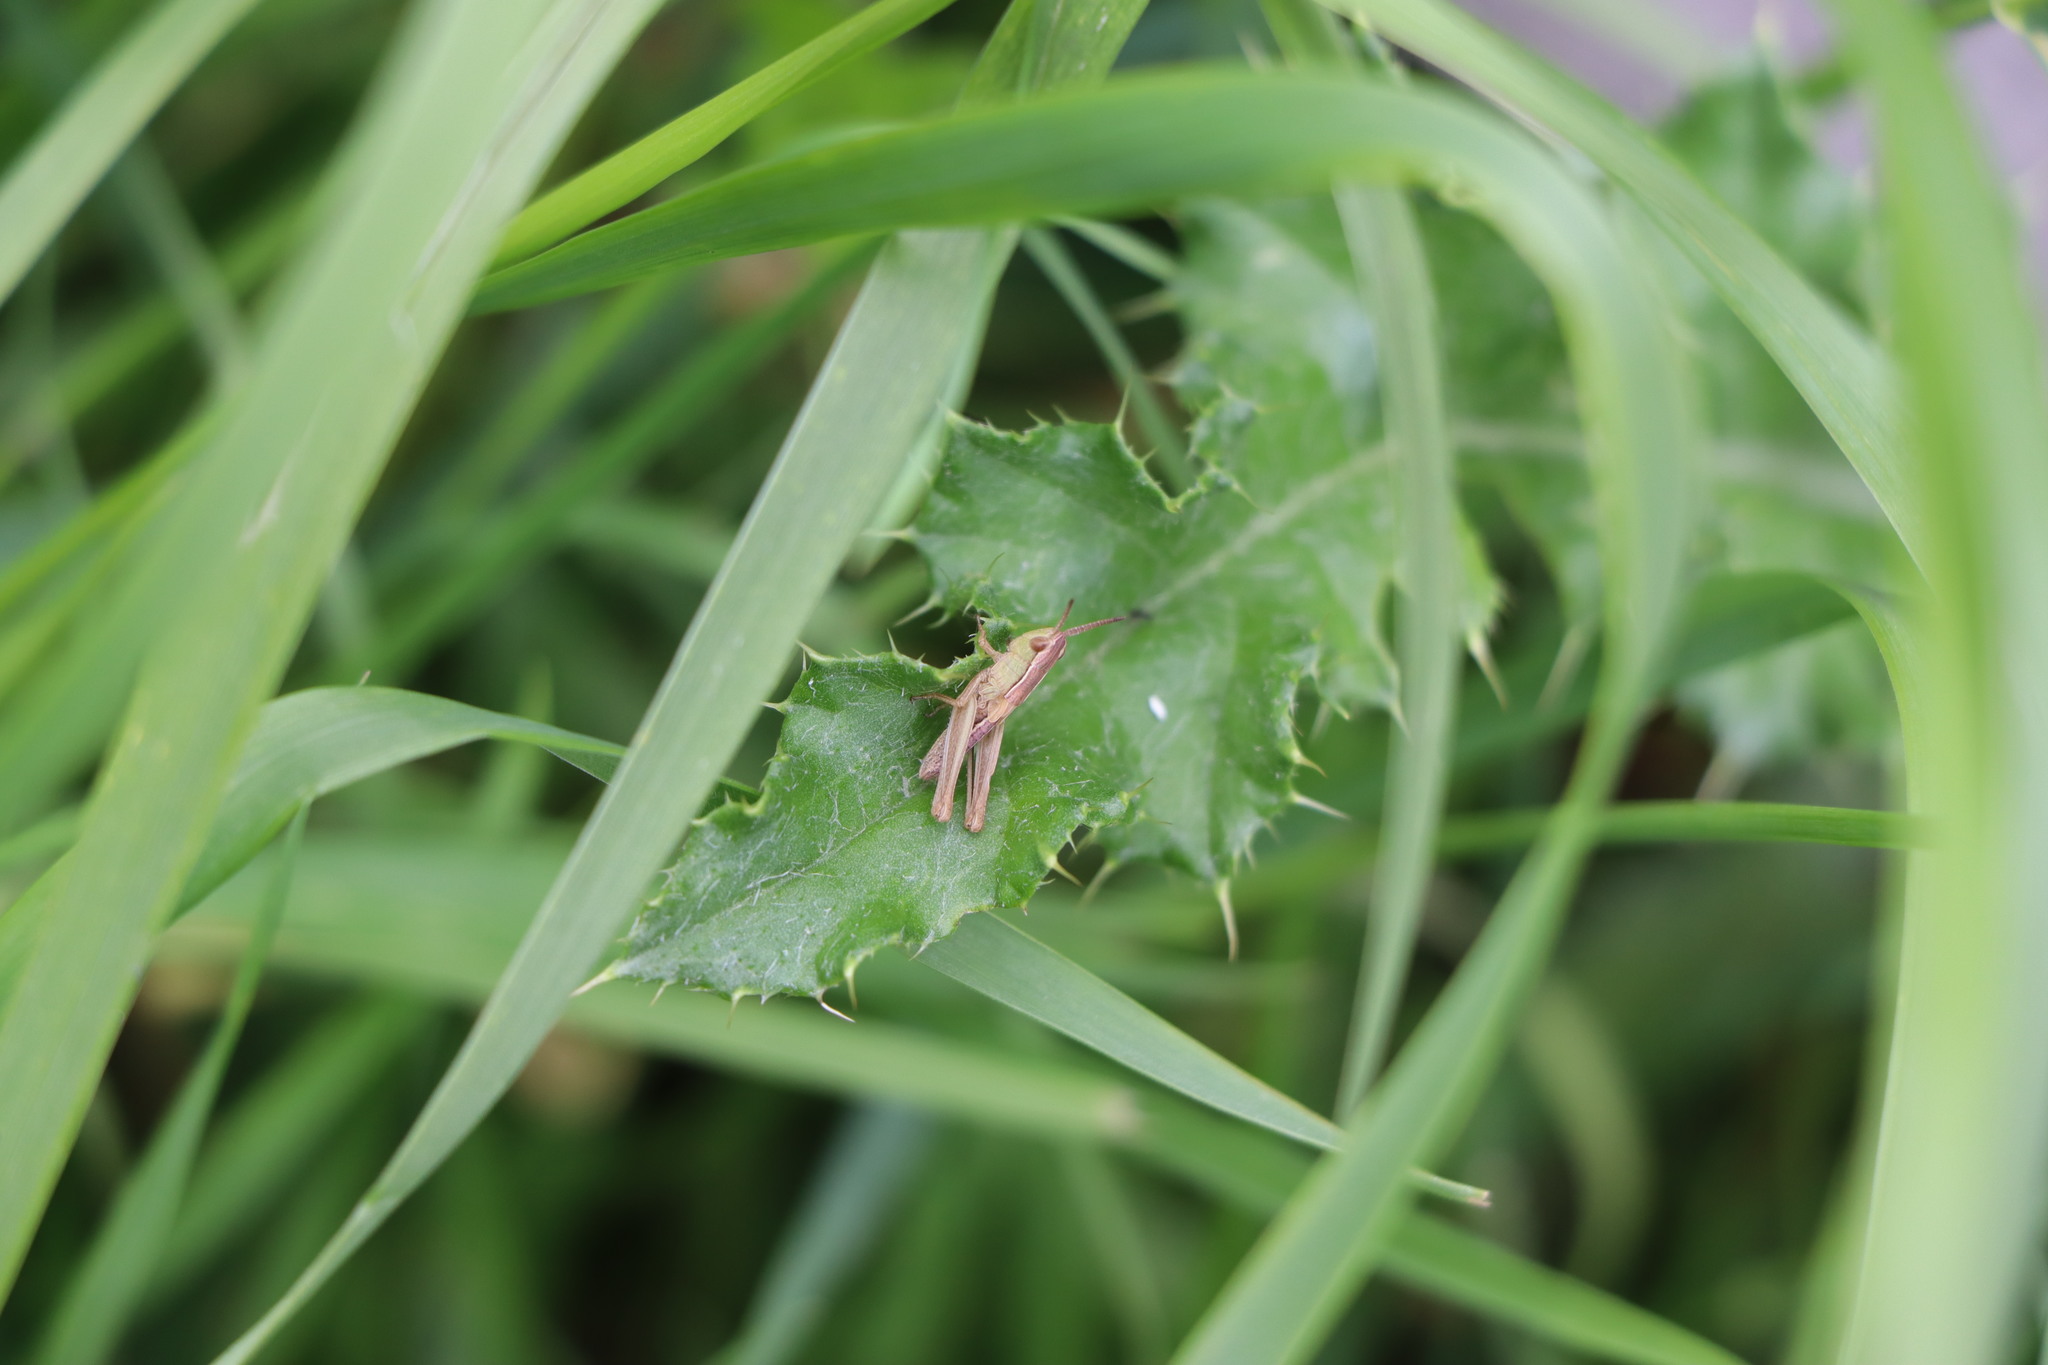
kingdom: Animalia
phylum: Arthropoda
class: Insecta
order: Orthoptera
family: Acrididae
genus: Pseudochorthippus
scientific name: Pseudochorthippus parallelus
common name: Meadow grasshopper
